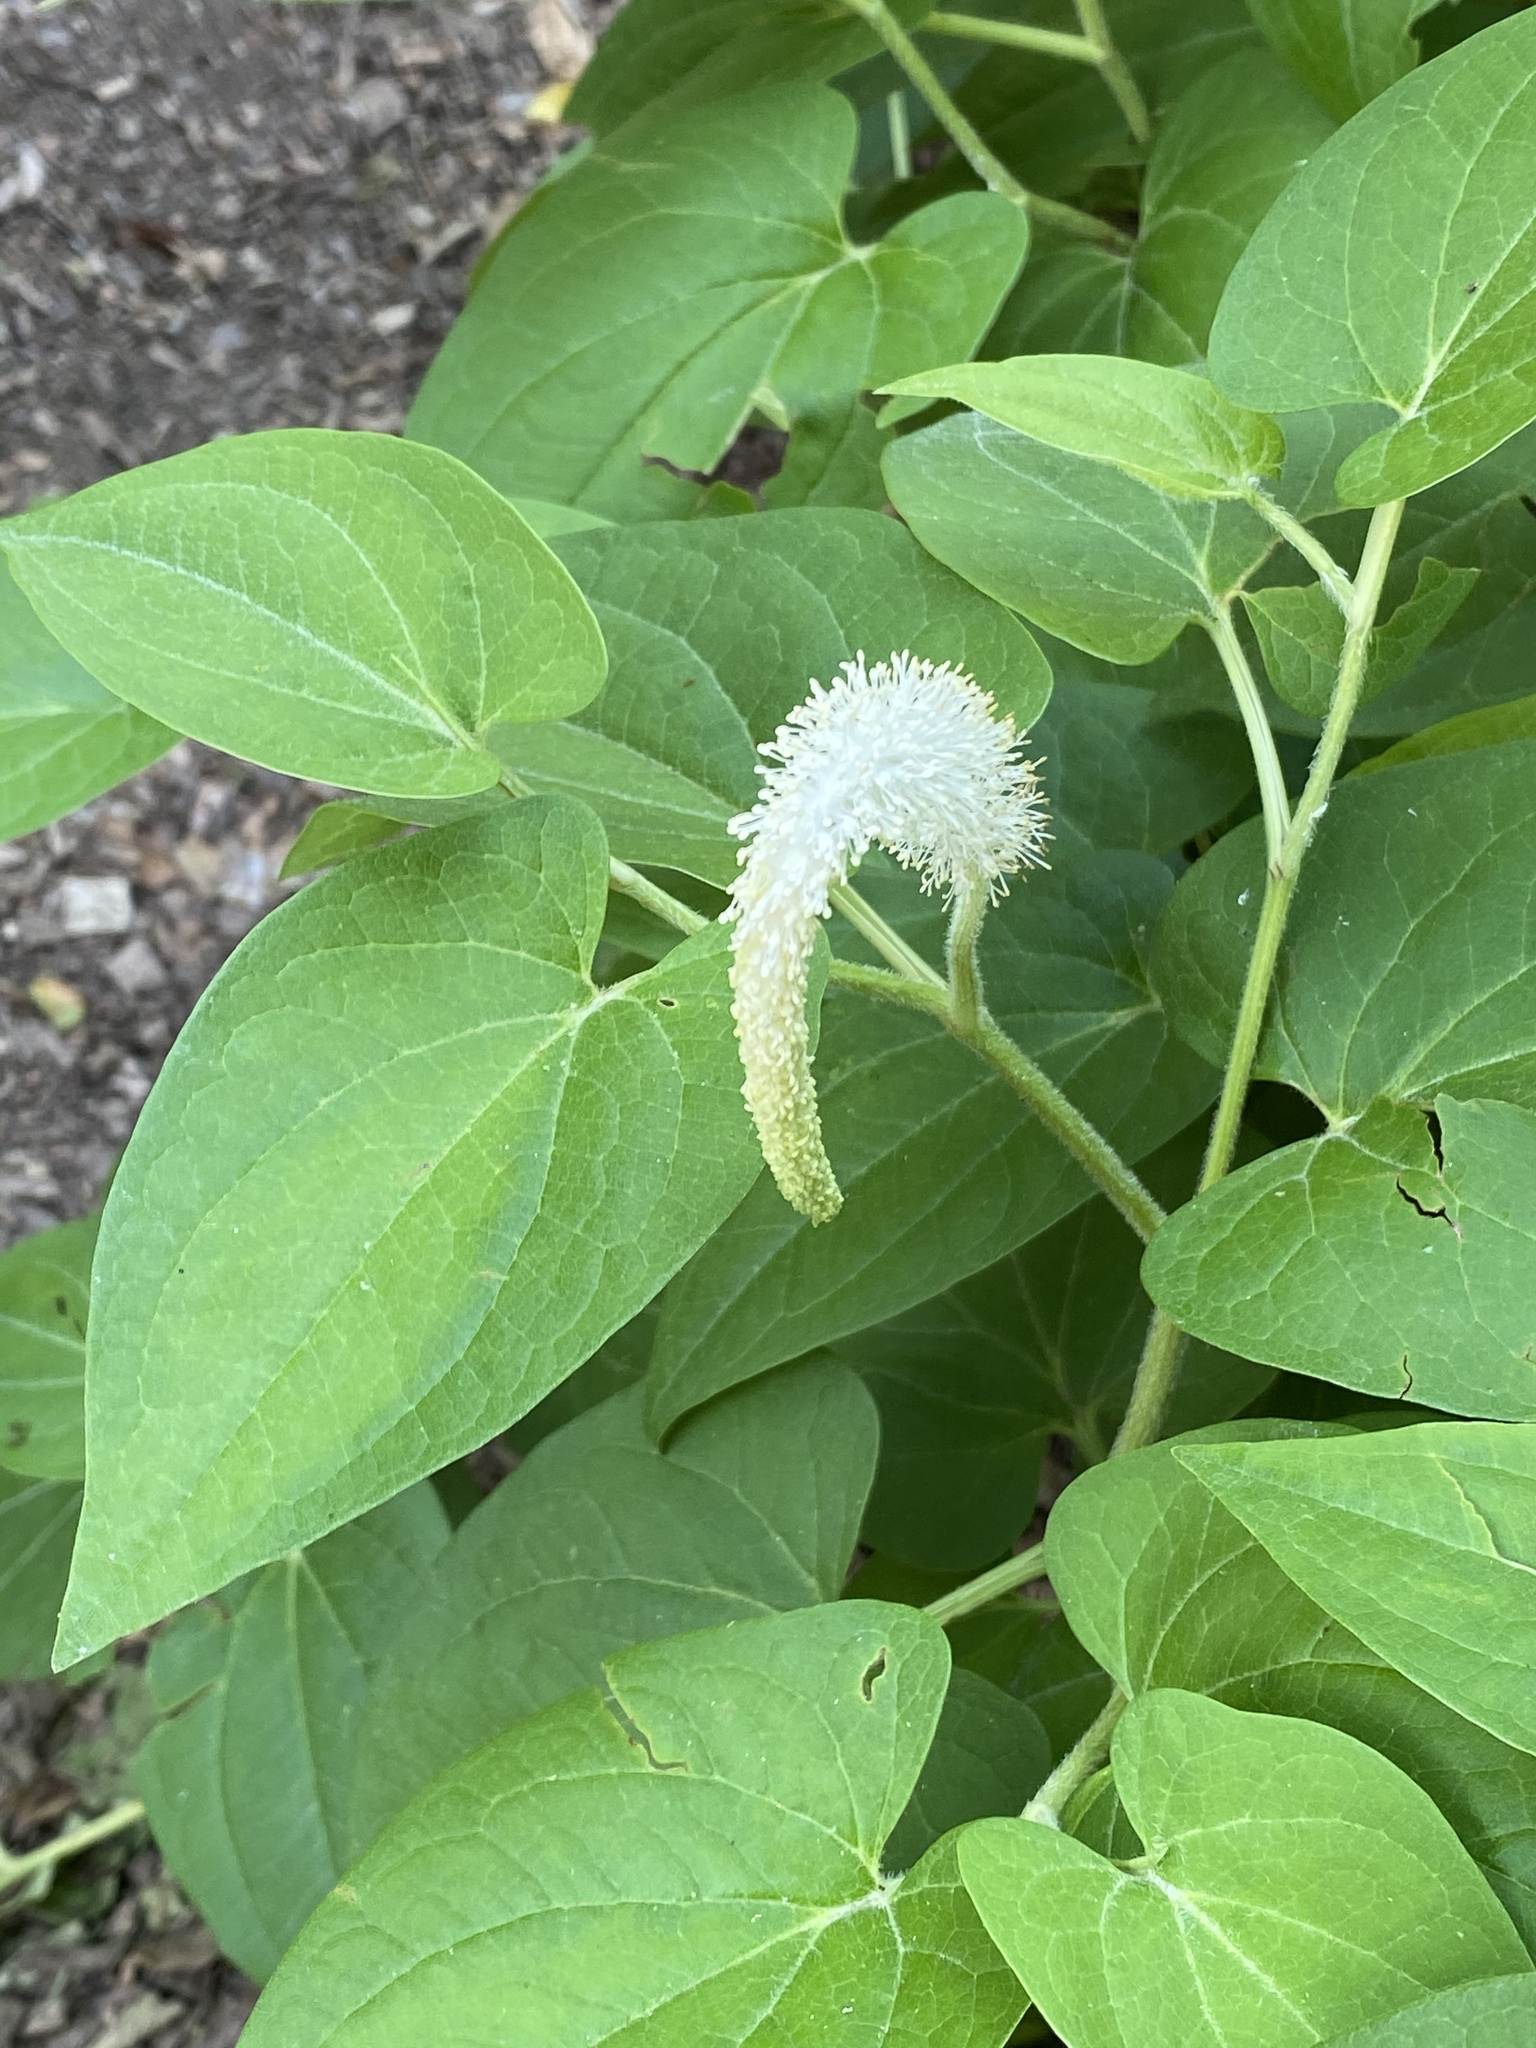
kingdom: Plantae
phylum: Tracheophyta
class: Magnoliopsida
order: Piperales
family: Saururaceae
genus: Saururus
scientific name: Saururus cernuus
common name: Lizard's-tail
